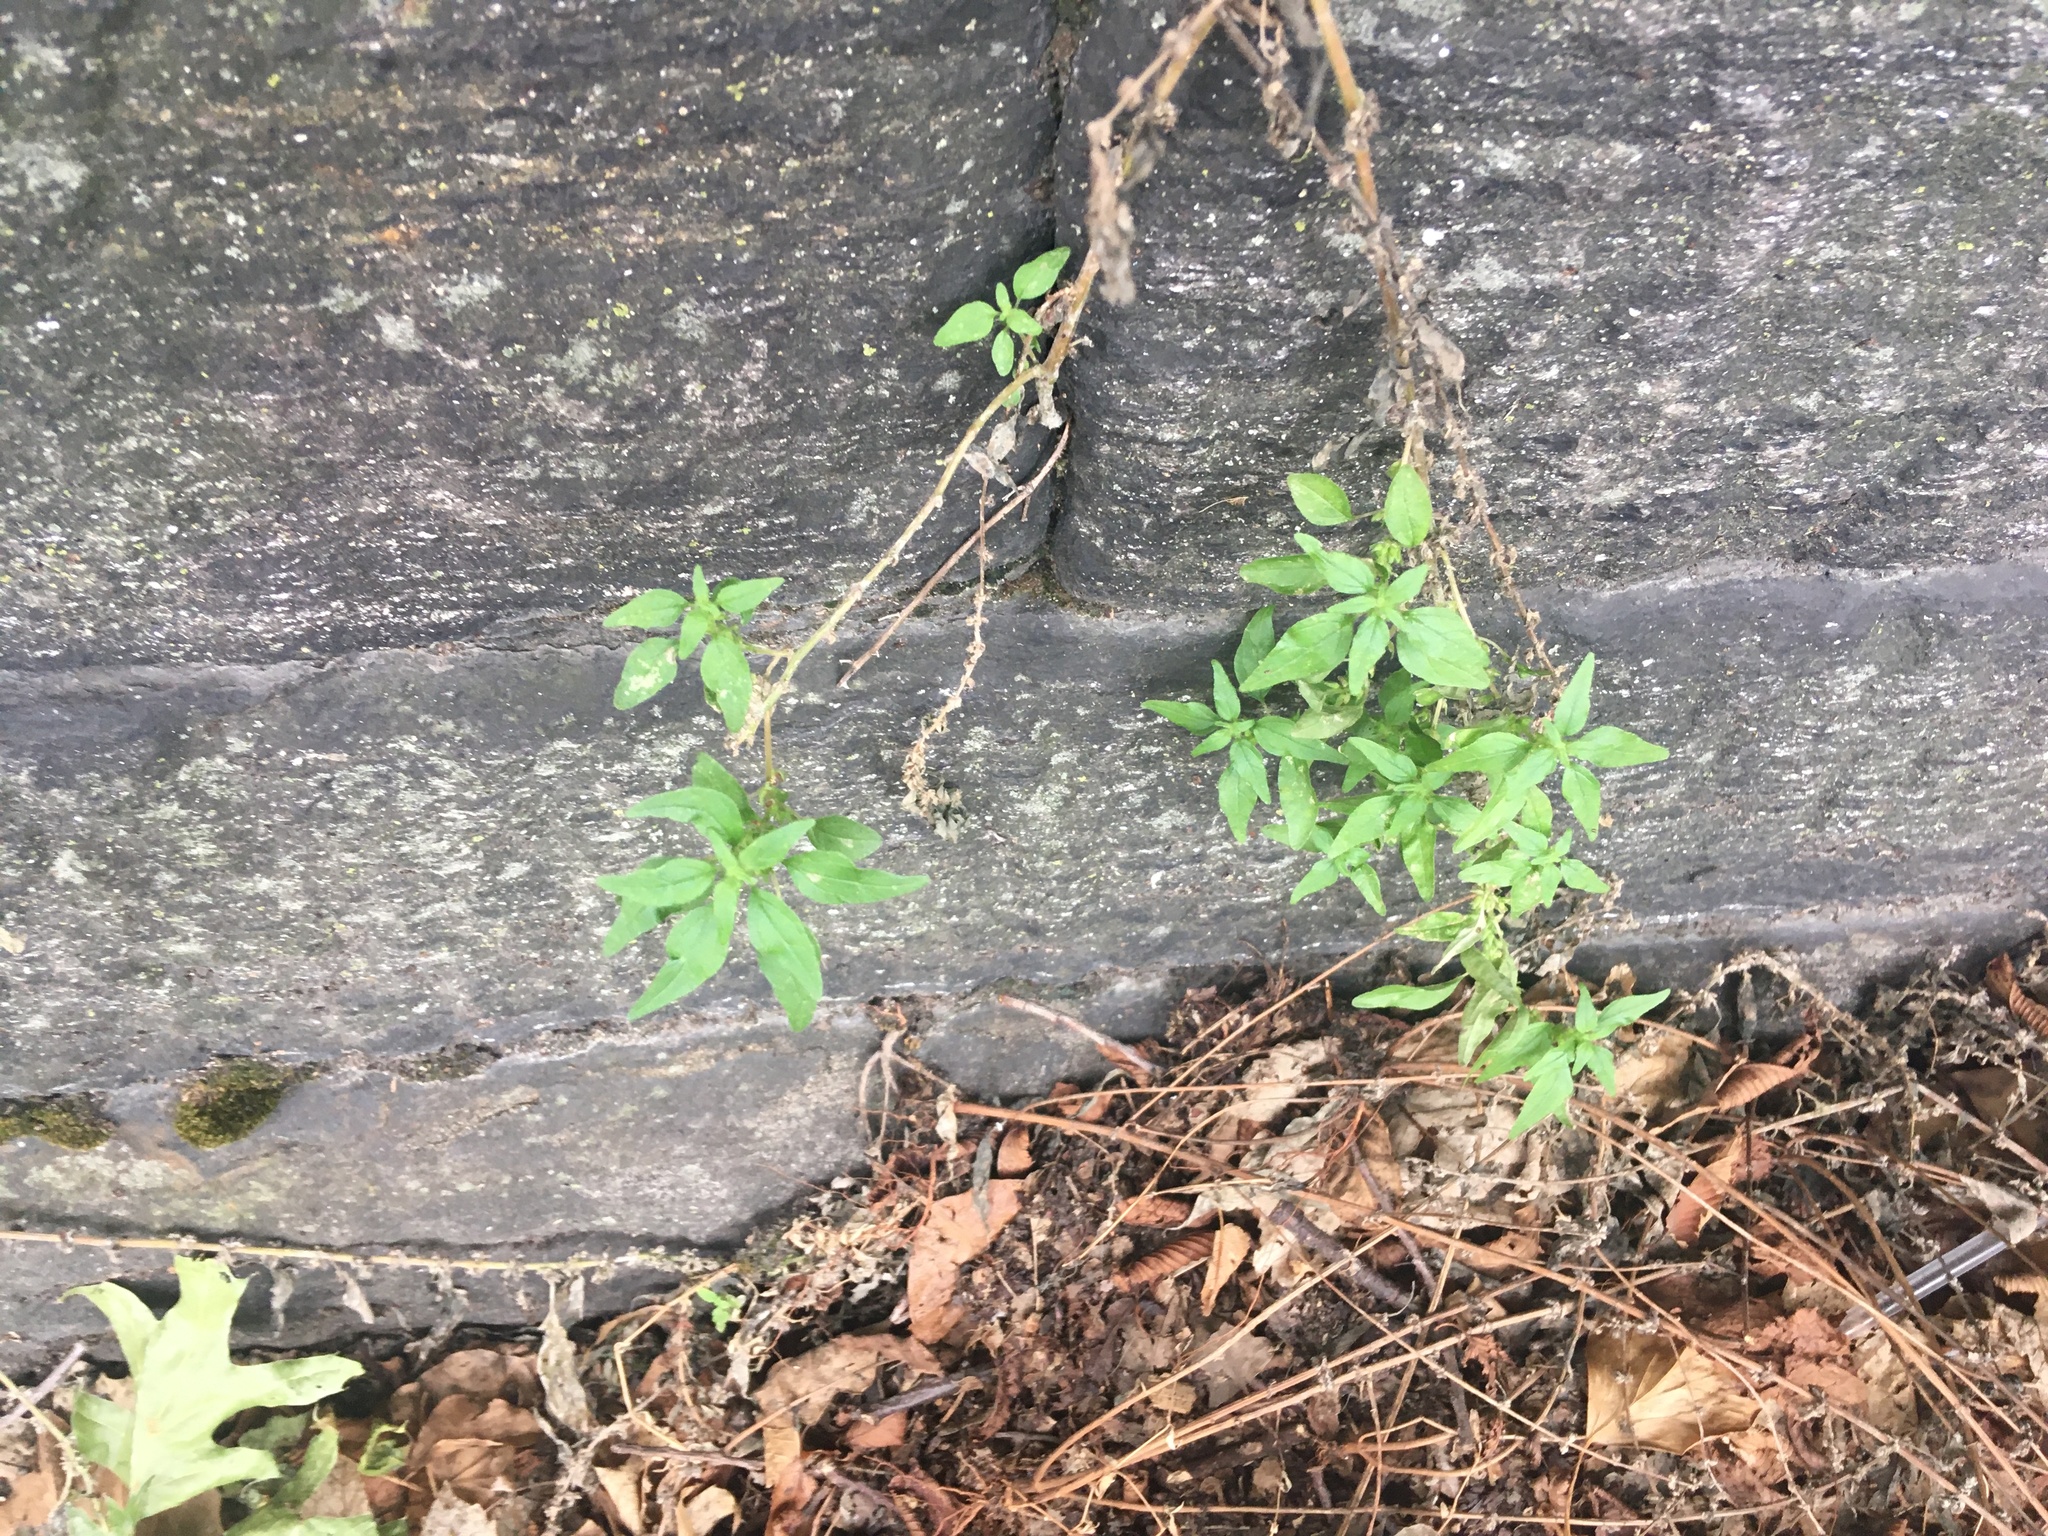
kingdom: Plantae
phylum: Tracheophyta
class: Magnoliopsida
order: Rosales
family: Urticaceae
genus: Parietaria
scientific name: Parietaria pensylvanica
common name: Pennsylvania pellitory
